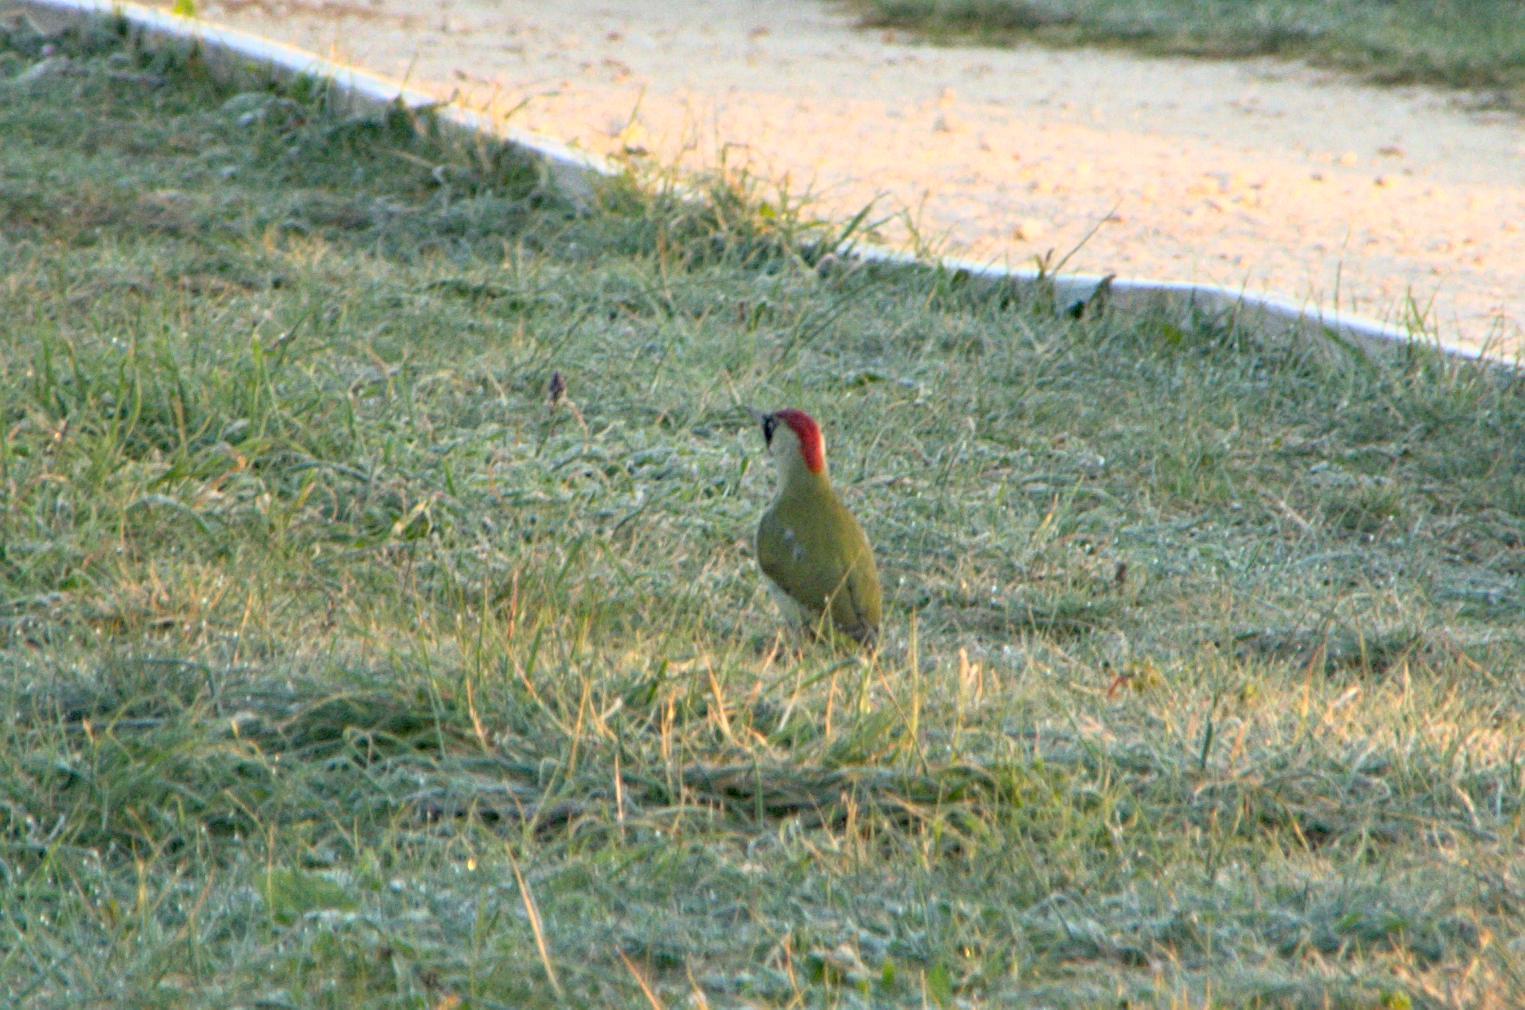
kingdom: Animalia
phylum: Chordata
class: Aves
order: Piciformes
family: Picidae
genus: Picus
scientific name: Picus viridis
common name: European green woodpecker
